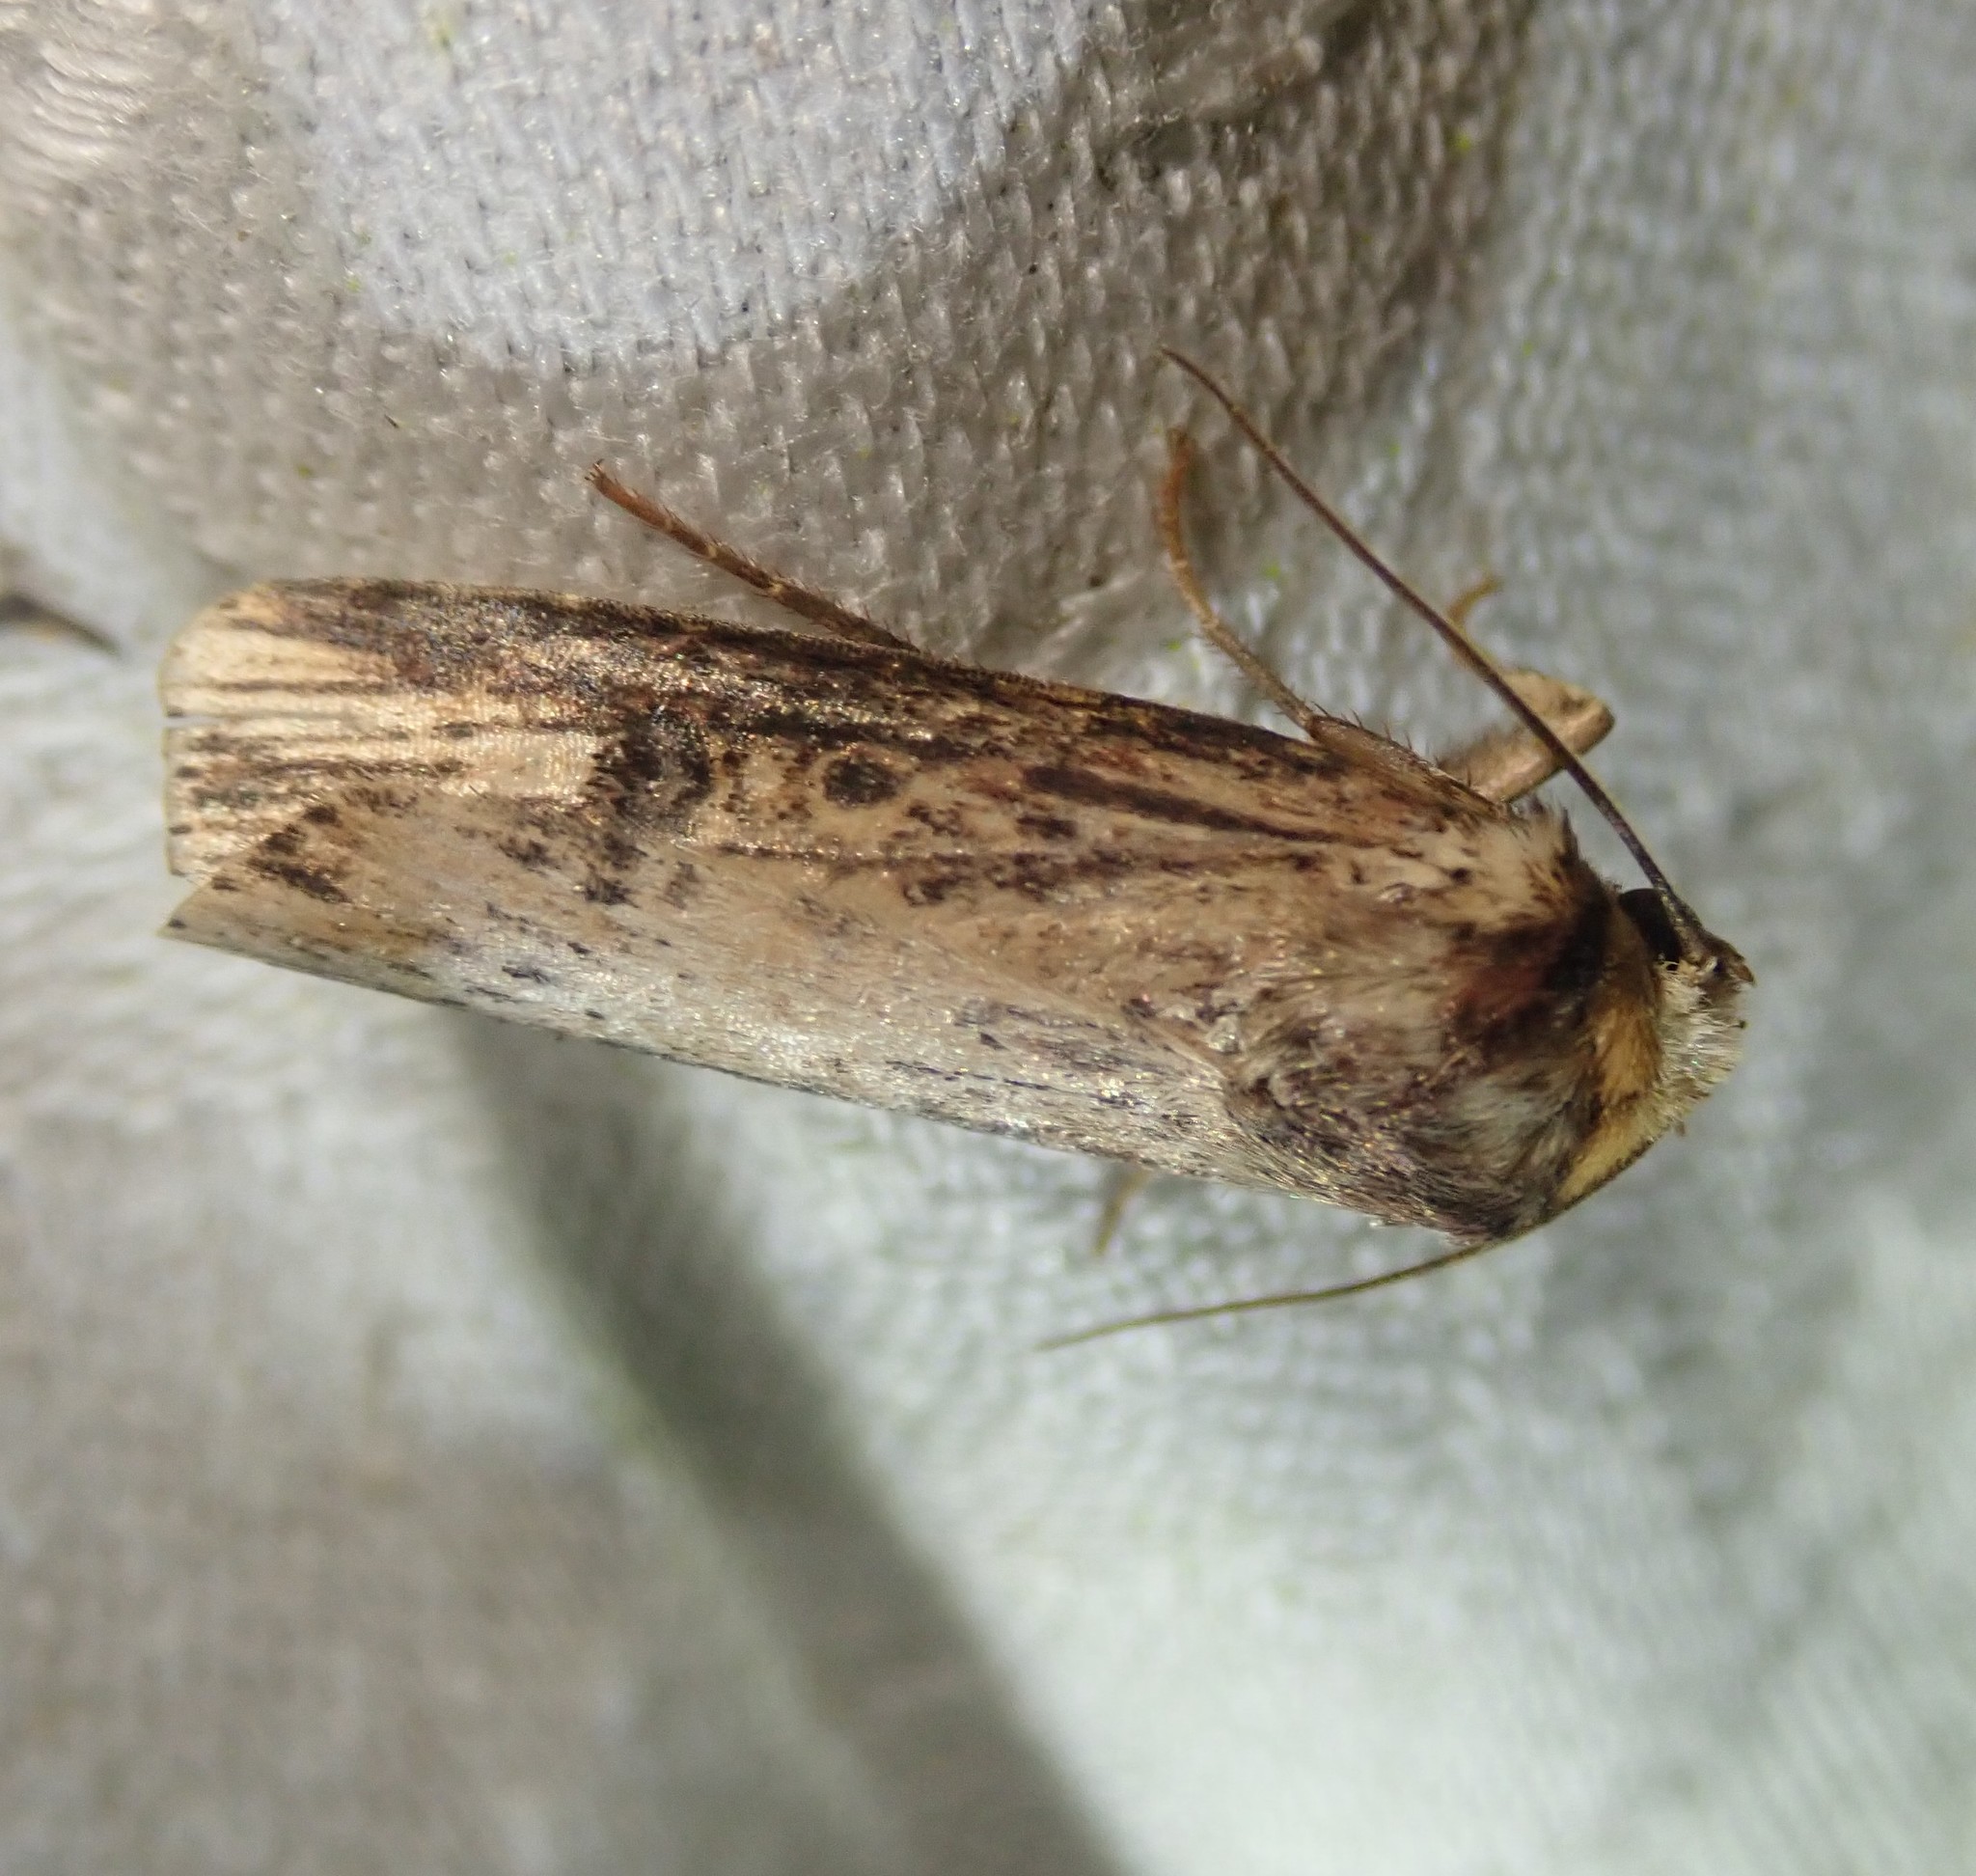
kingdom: Animalia
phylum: Arthropoda
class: Insecta
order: Lepidoptera
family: Noctuidae
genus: Axylia
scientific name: Axylia putris
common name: Flame
